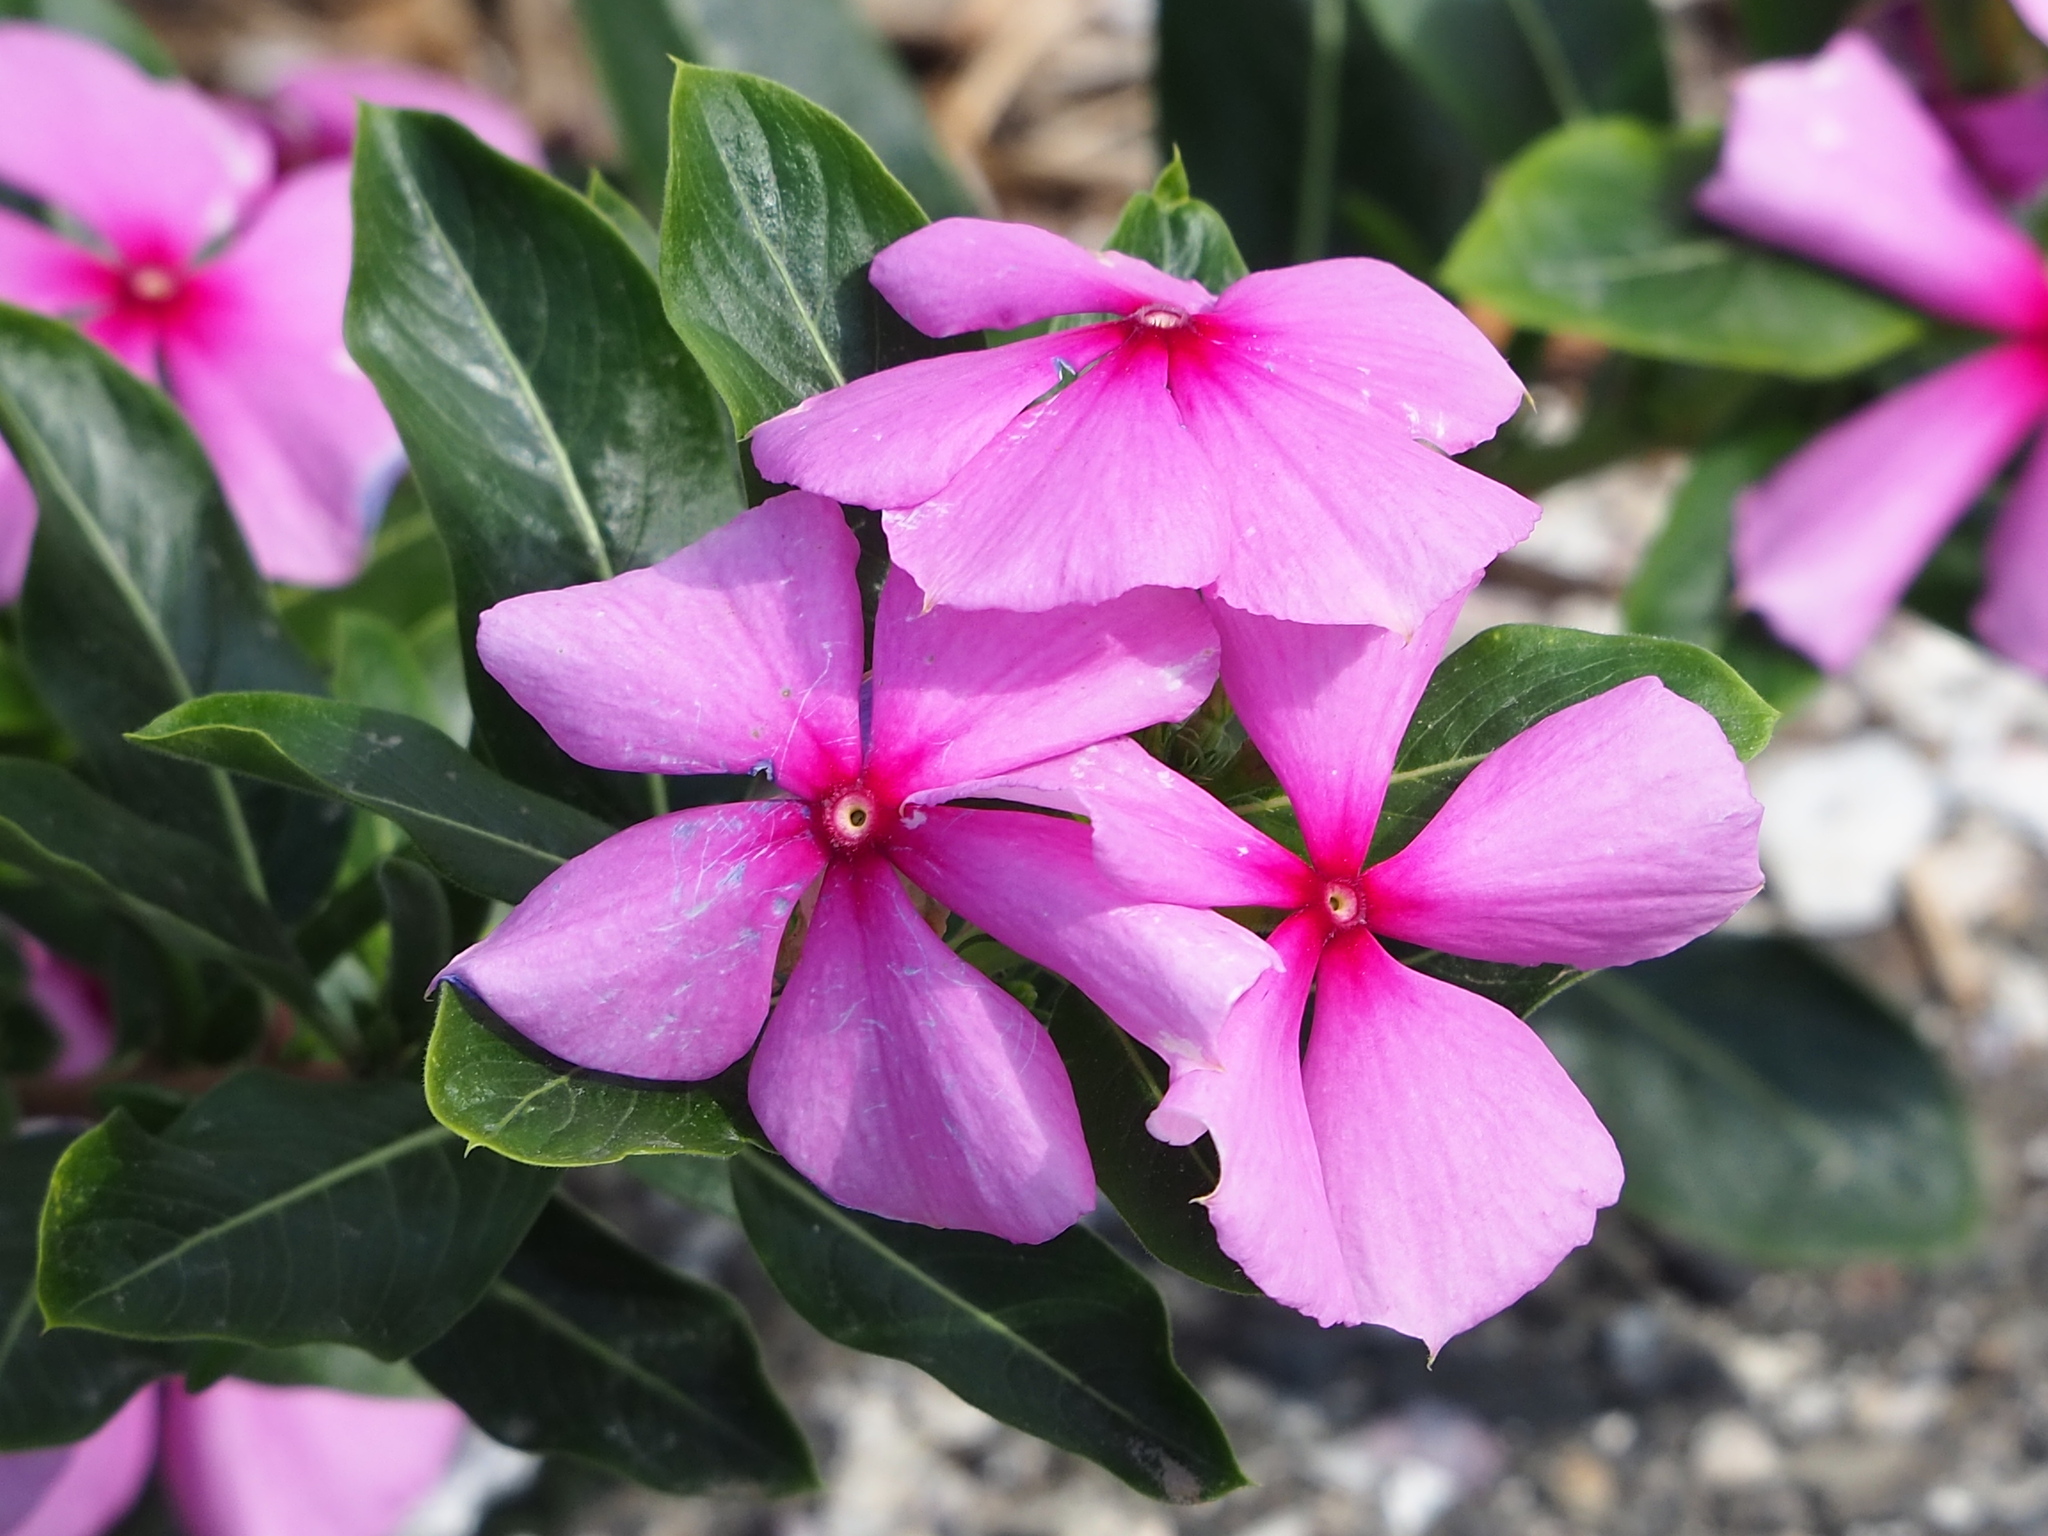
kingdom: Plantae
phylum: Tracheophyta
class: Magnoliopsida
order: Gentianales
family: Apocynaceae
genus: Catharanthus
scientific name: Catharanthus roseus
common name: Madagascar periwinkle
